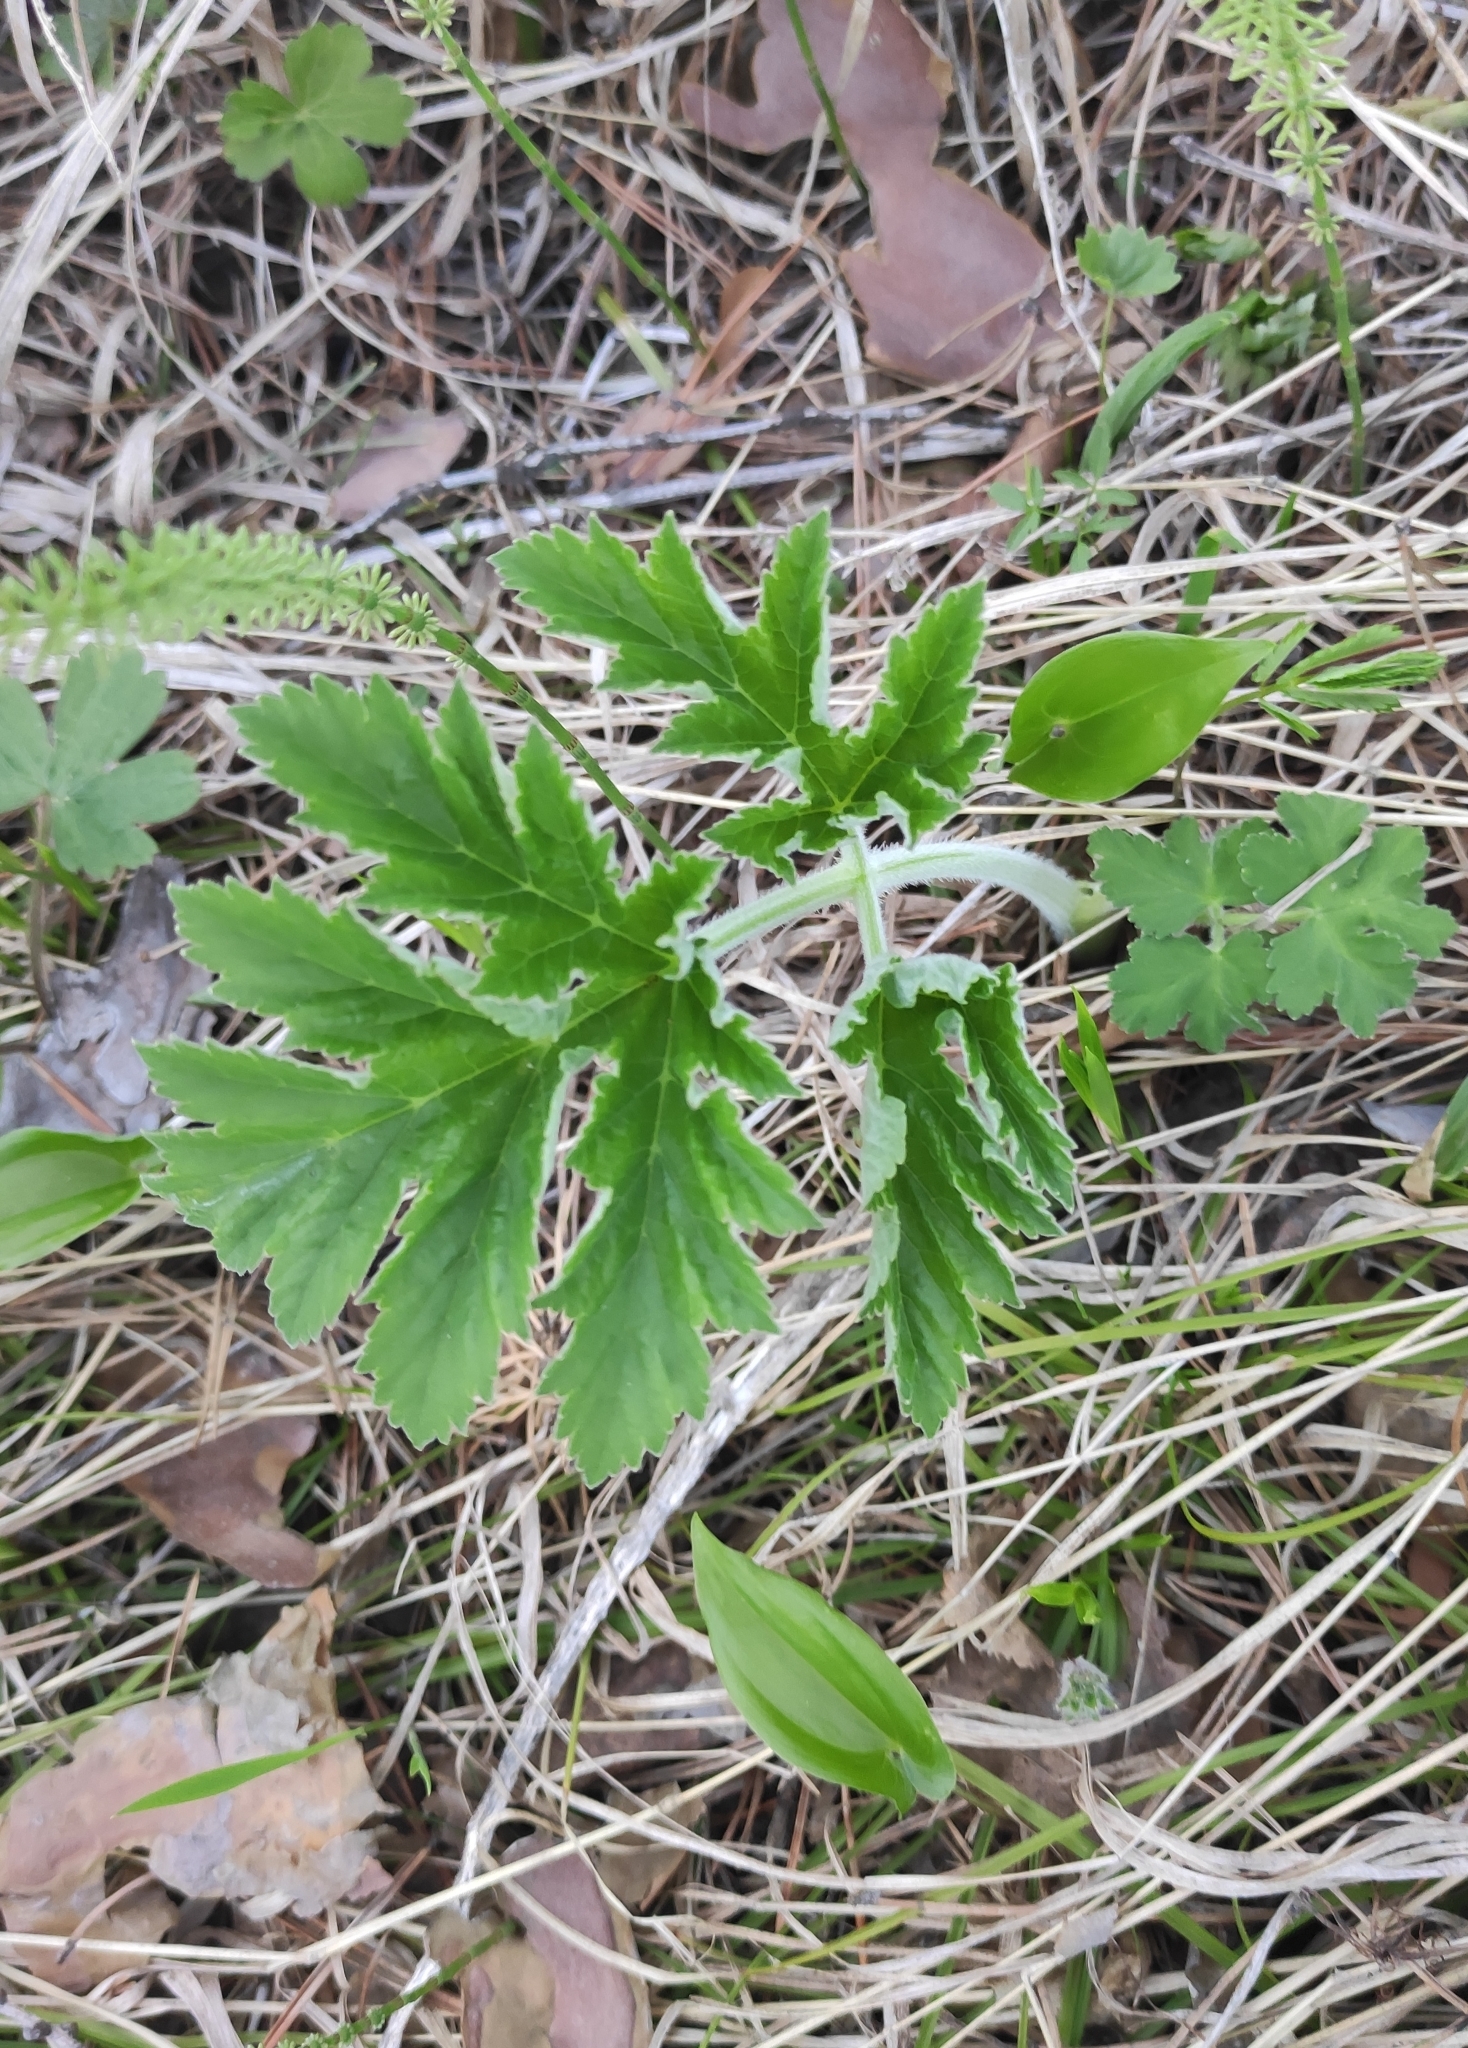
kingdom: Plantae
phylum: Tracheophyta
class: Magnoliopsida
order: Apiales
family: Apiaceae
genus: Heracleum
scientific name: Heracleum dissectum
